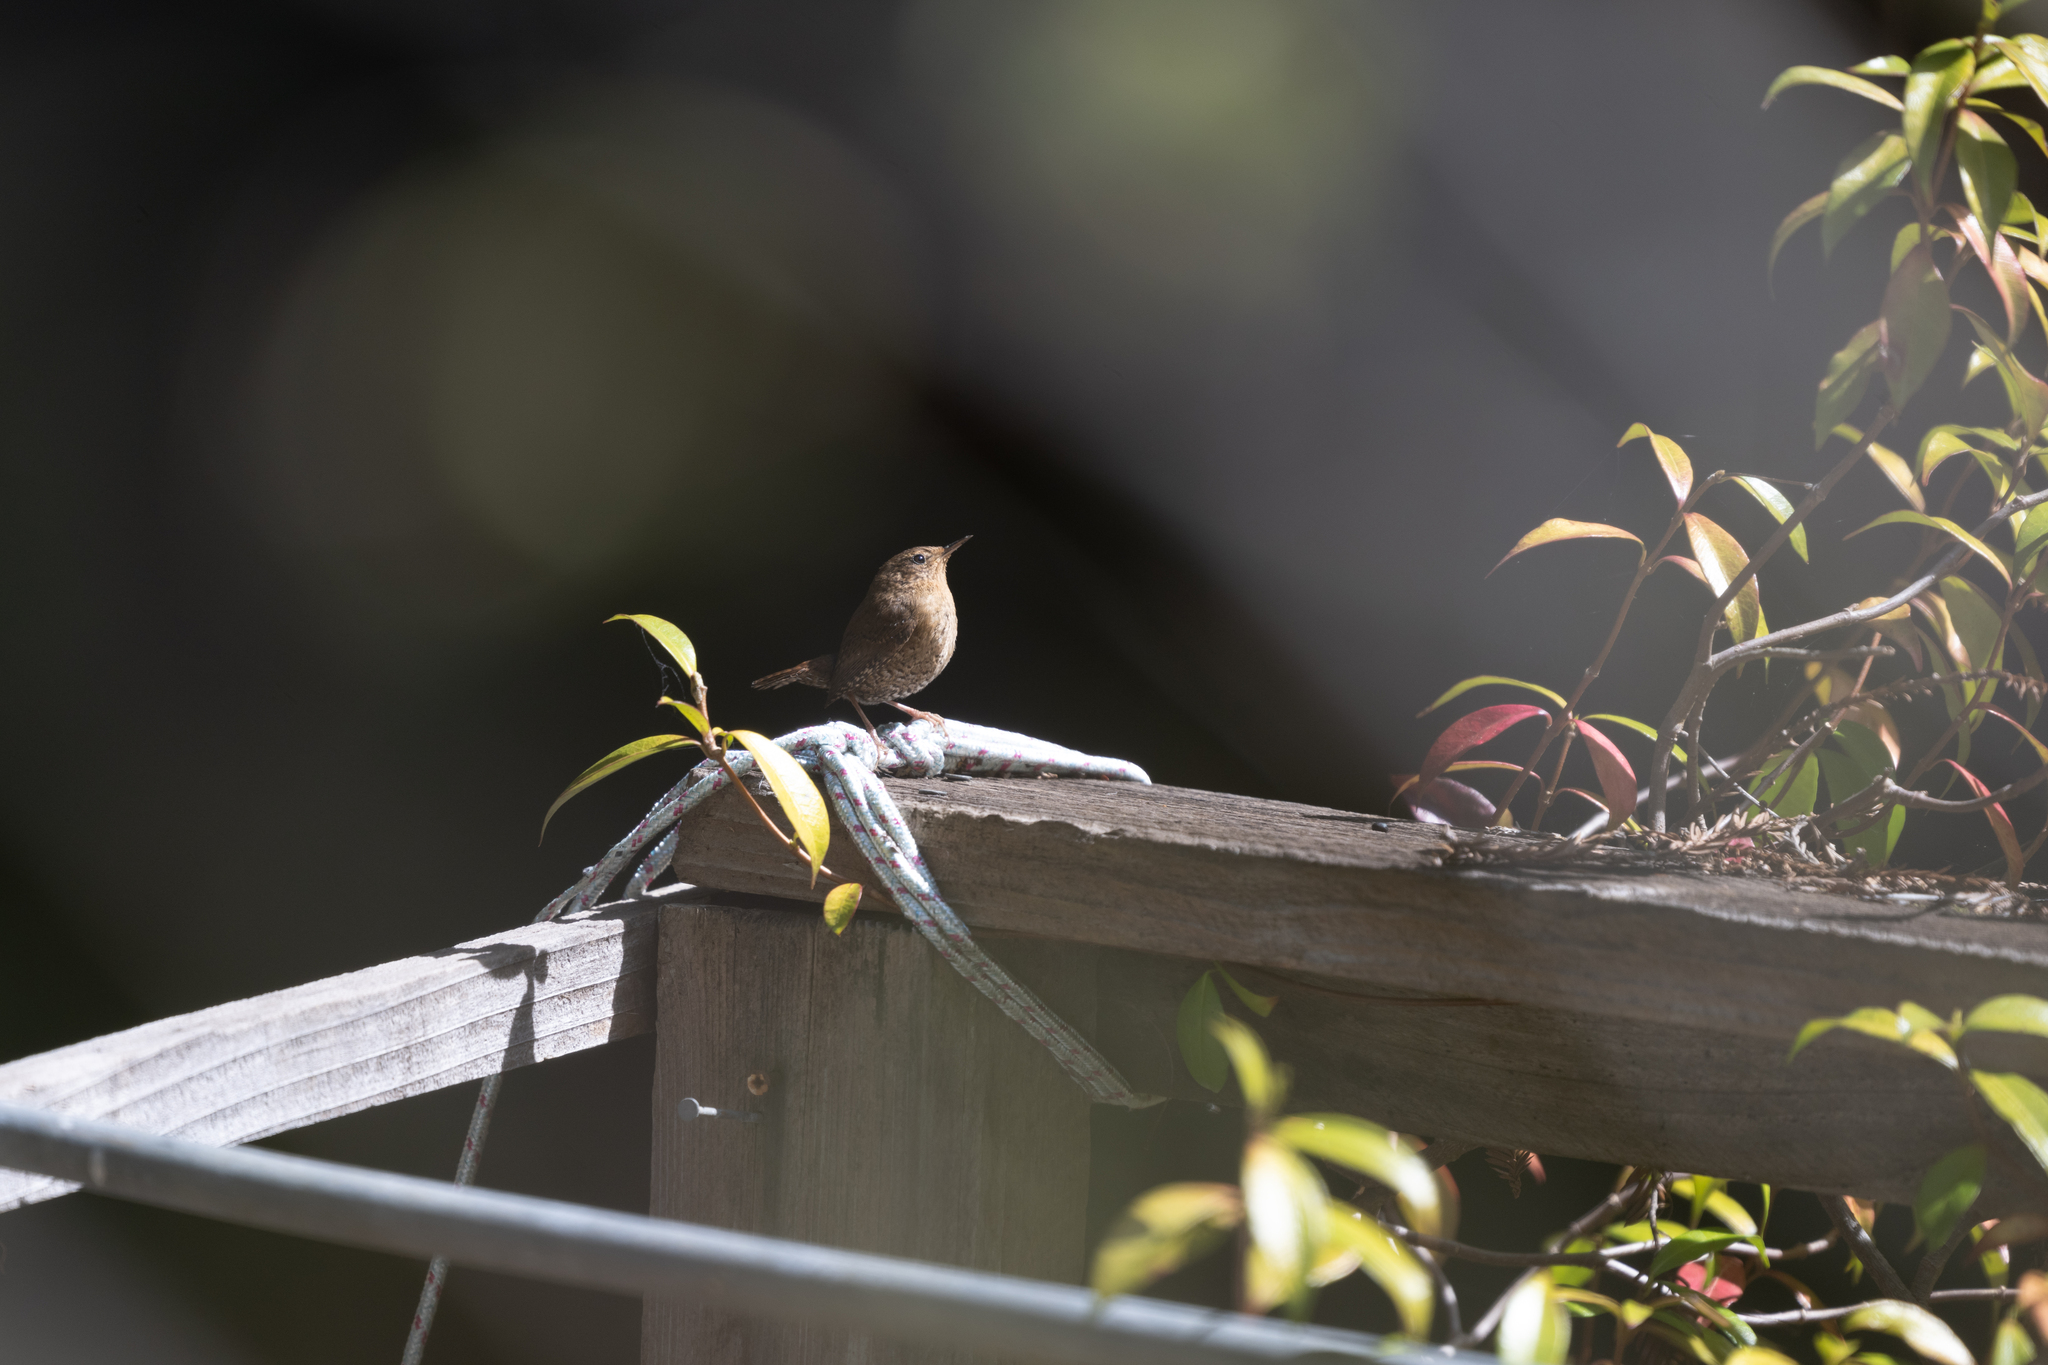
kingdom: Animalia
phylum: Chordata
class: Aves
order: Passeriformes
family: Troglodytidae
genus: Troglodytes
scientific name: Troglodytes pacificus
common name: Pacific wren
